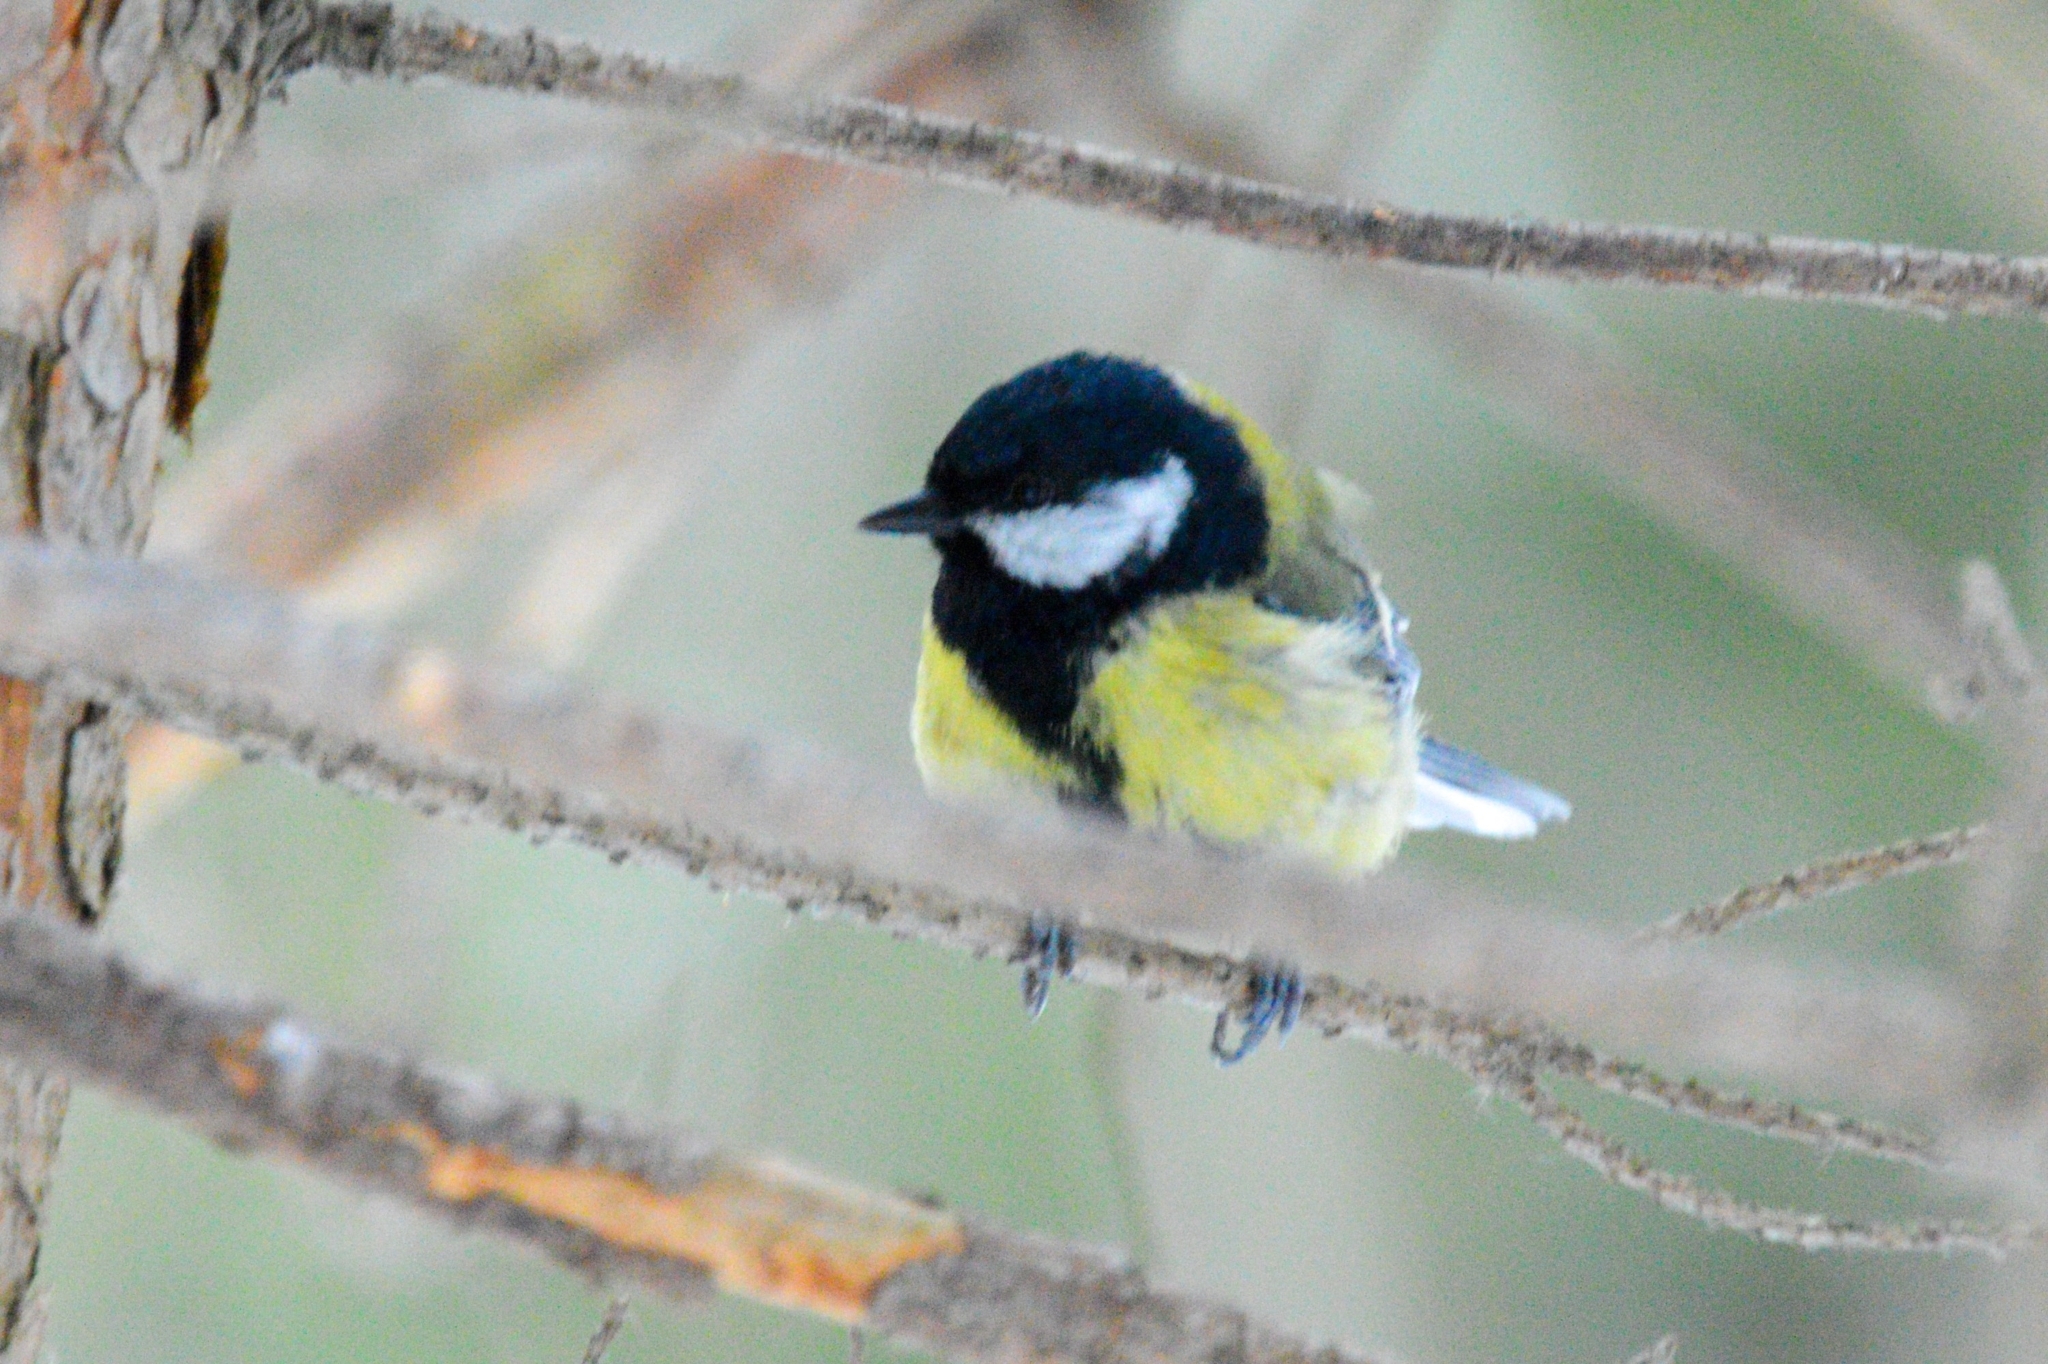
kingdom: Animalia
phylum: Chordata
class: Aves
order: Passeriformes
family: Paridae
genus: Parus
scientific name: Parus major
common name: Great tit
